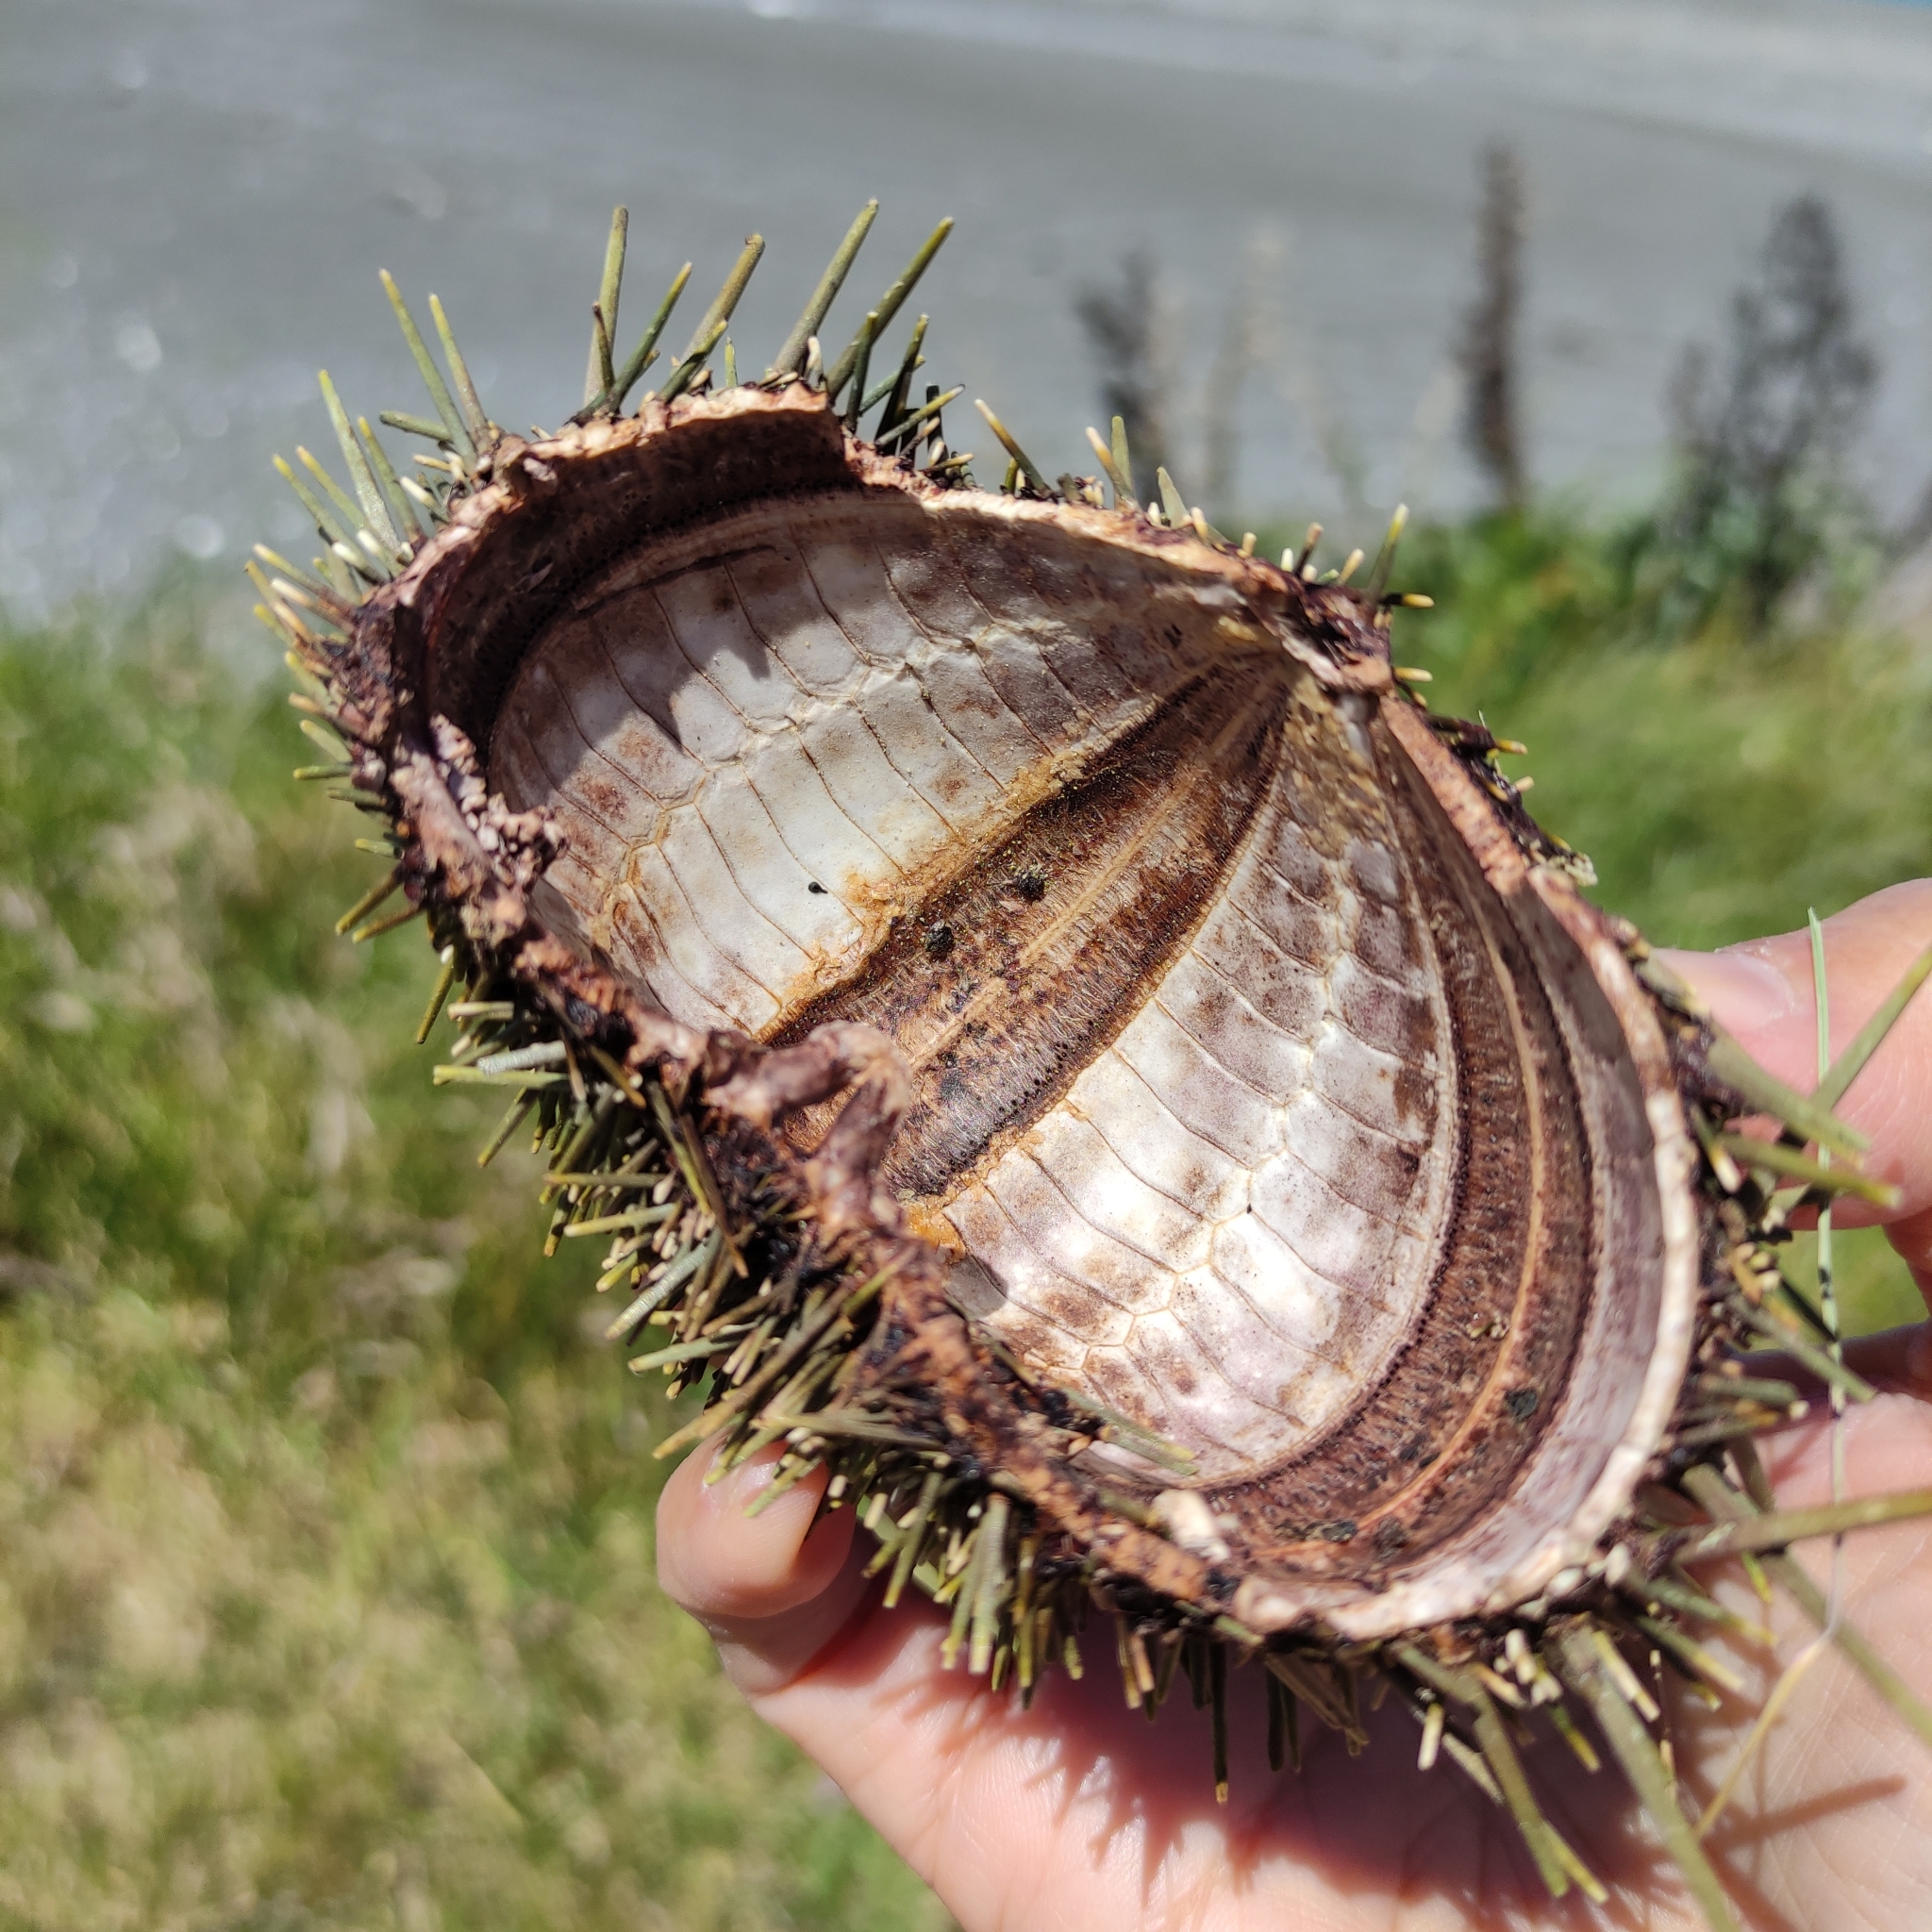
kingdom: Animalia
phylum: Echinodermata
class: Echinoidea
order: Camarodonta
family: Echinometridae
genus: Evechinus
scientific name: Evechinus chloroticus
